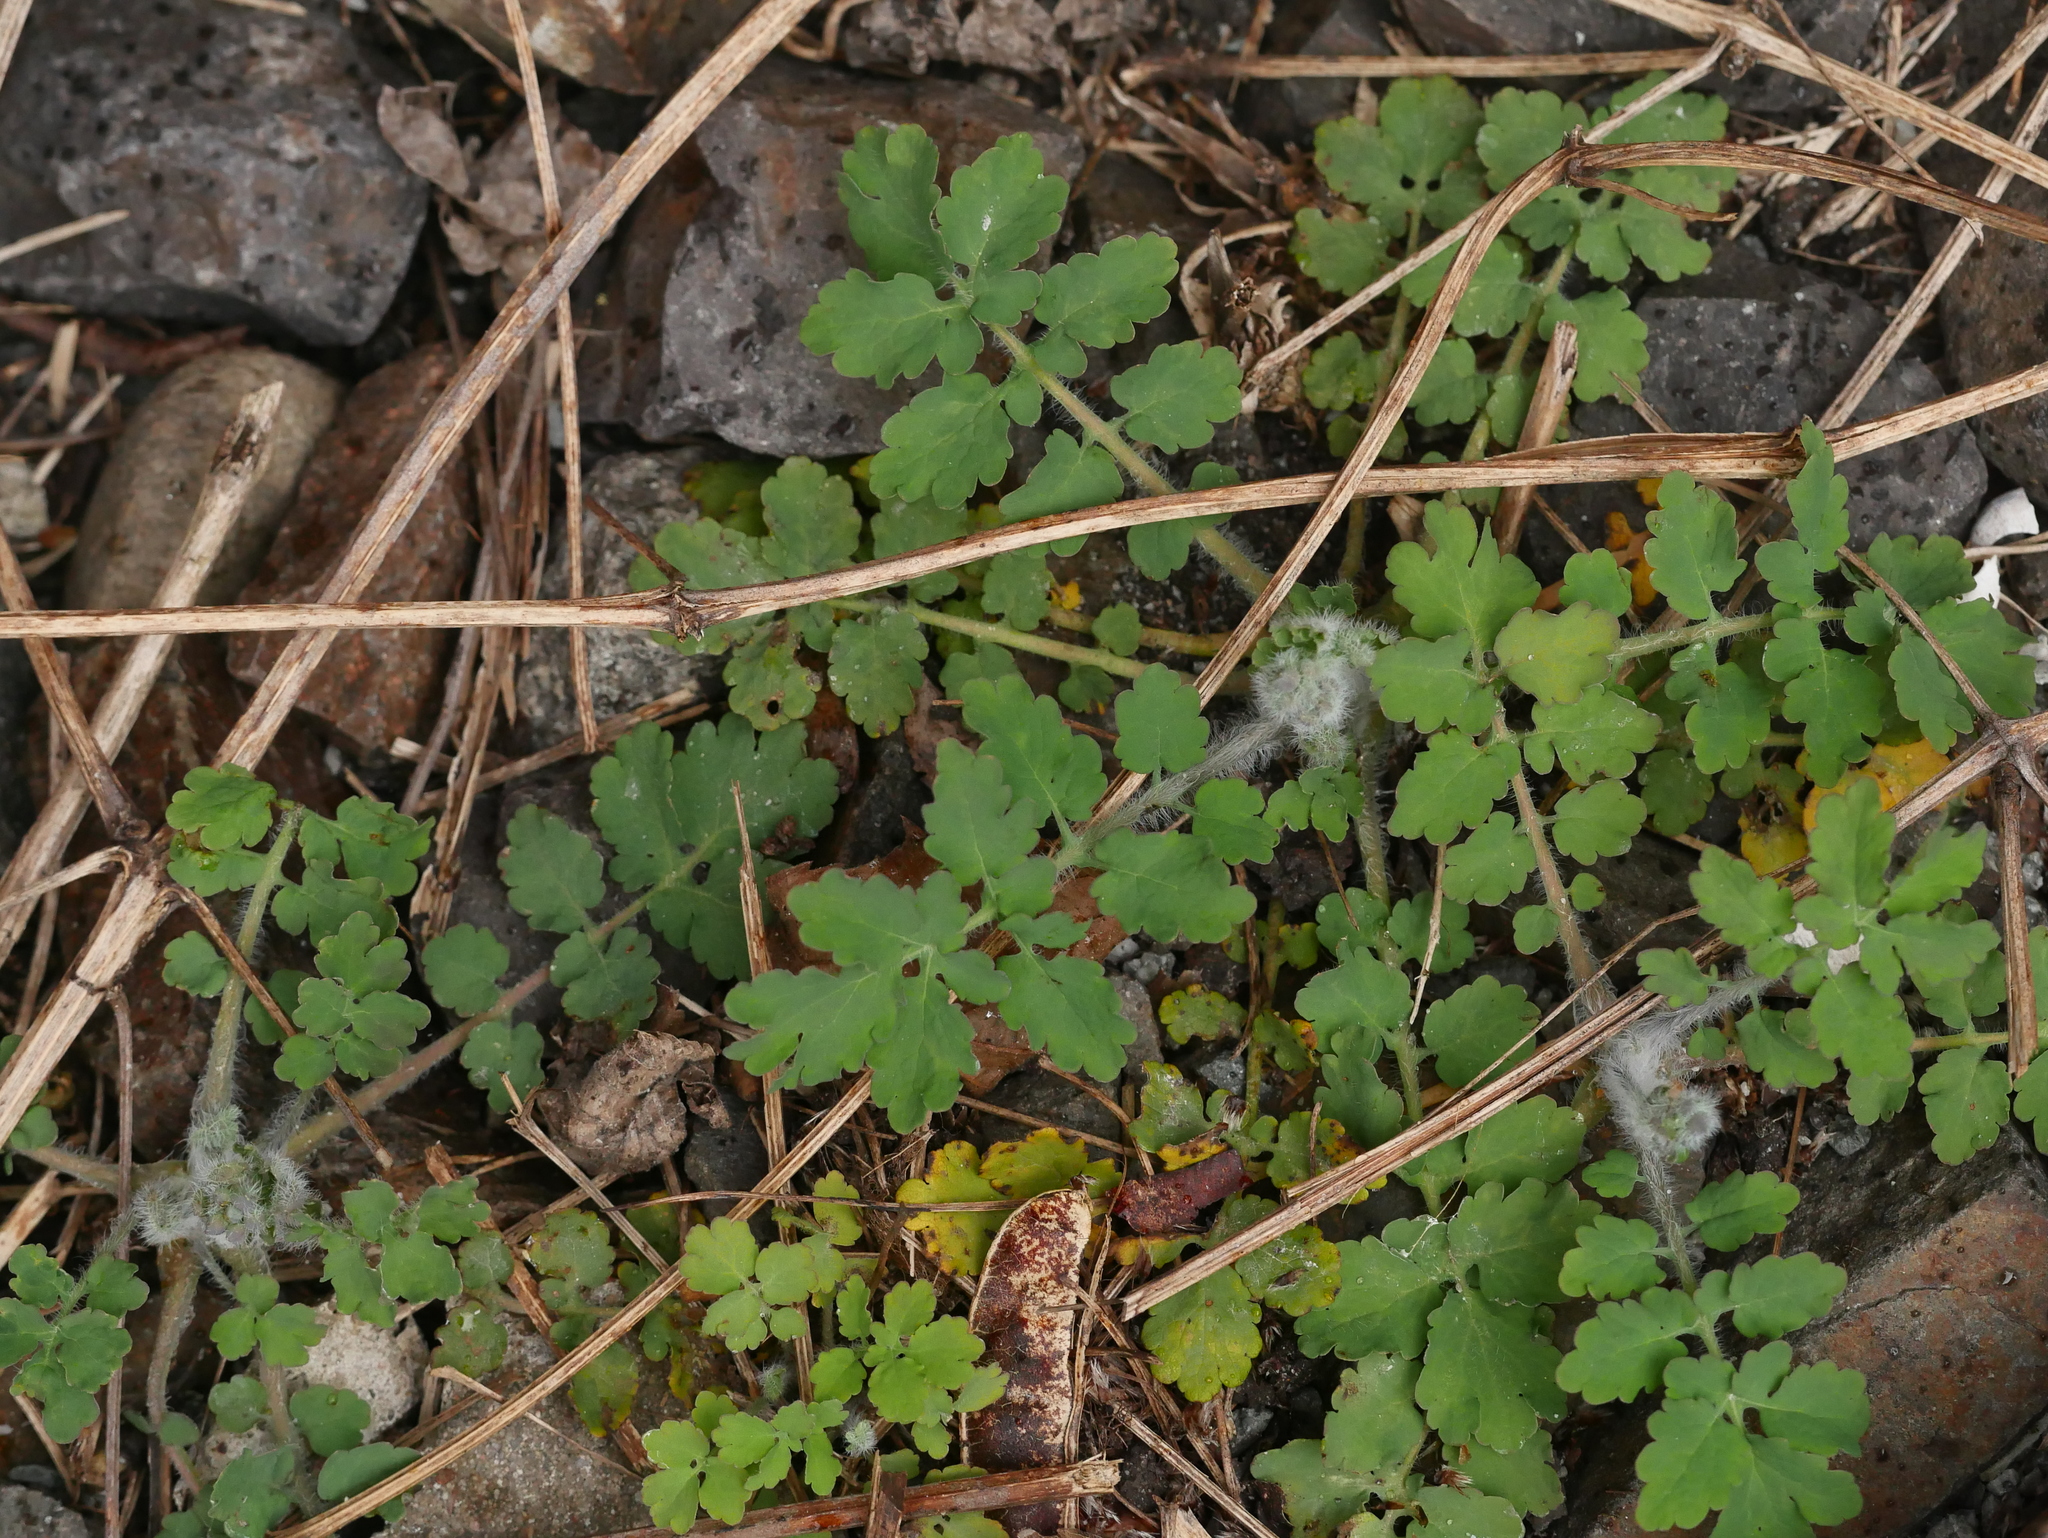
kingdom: Plantae
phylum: Tracheophyta
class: Magnoliopsida
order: Ranunculales
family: Papaveraceae
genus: Chelidonium
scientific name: Chelidonium majus
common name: Greater celandine
